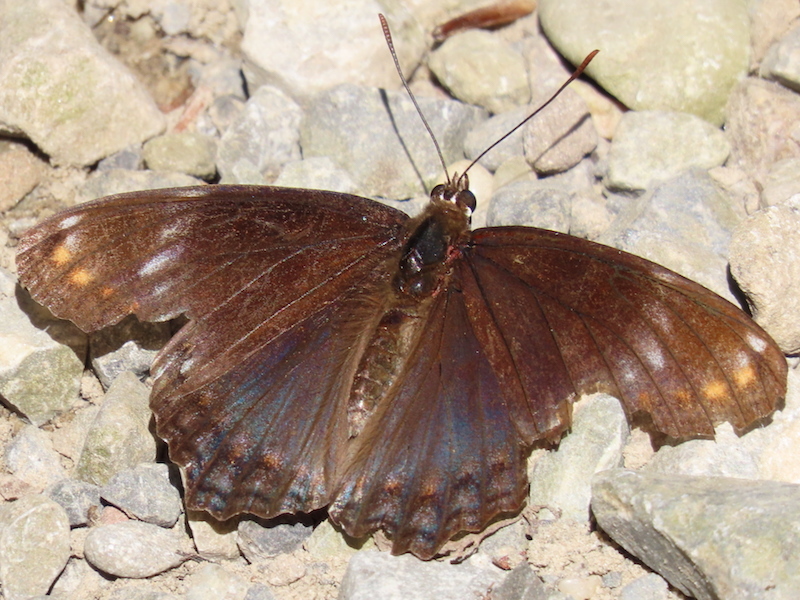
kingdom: Animalia
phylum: Arthropoda
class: Insecta
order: Lepidoptera
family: Nymphalidae
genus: Limenitis
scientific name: Limenitis arthemis
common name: Red-spotted admiral
